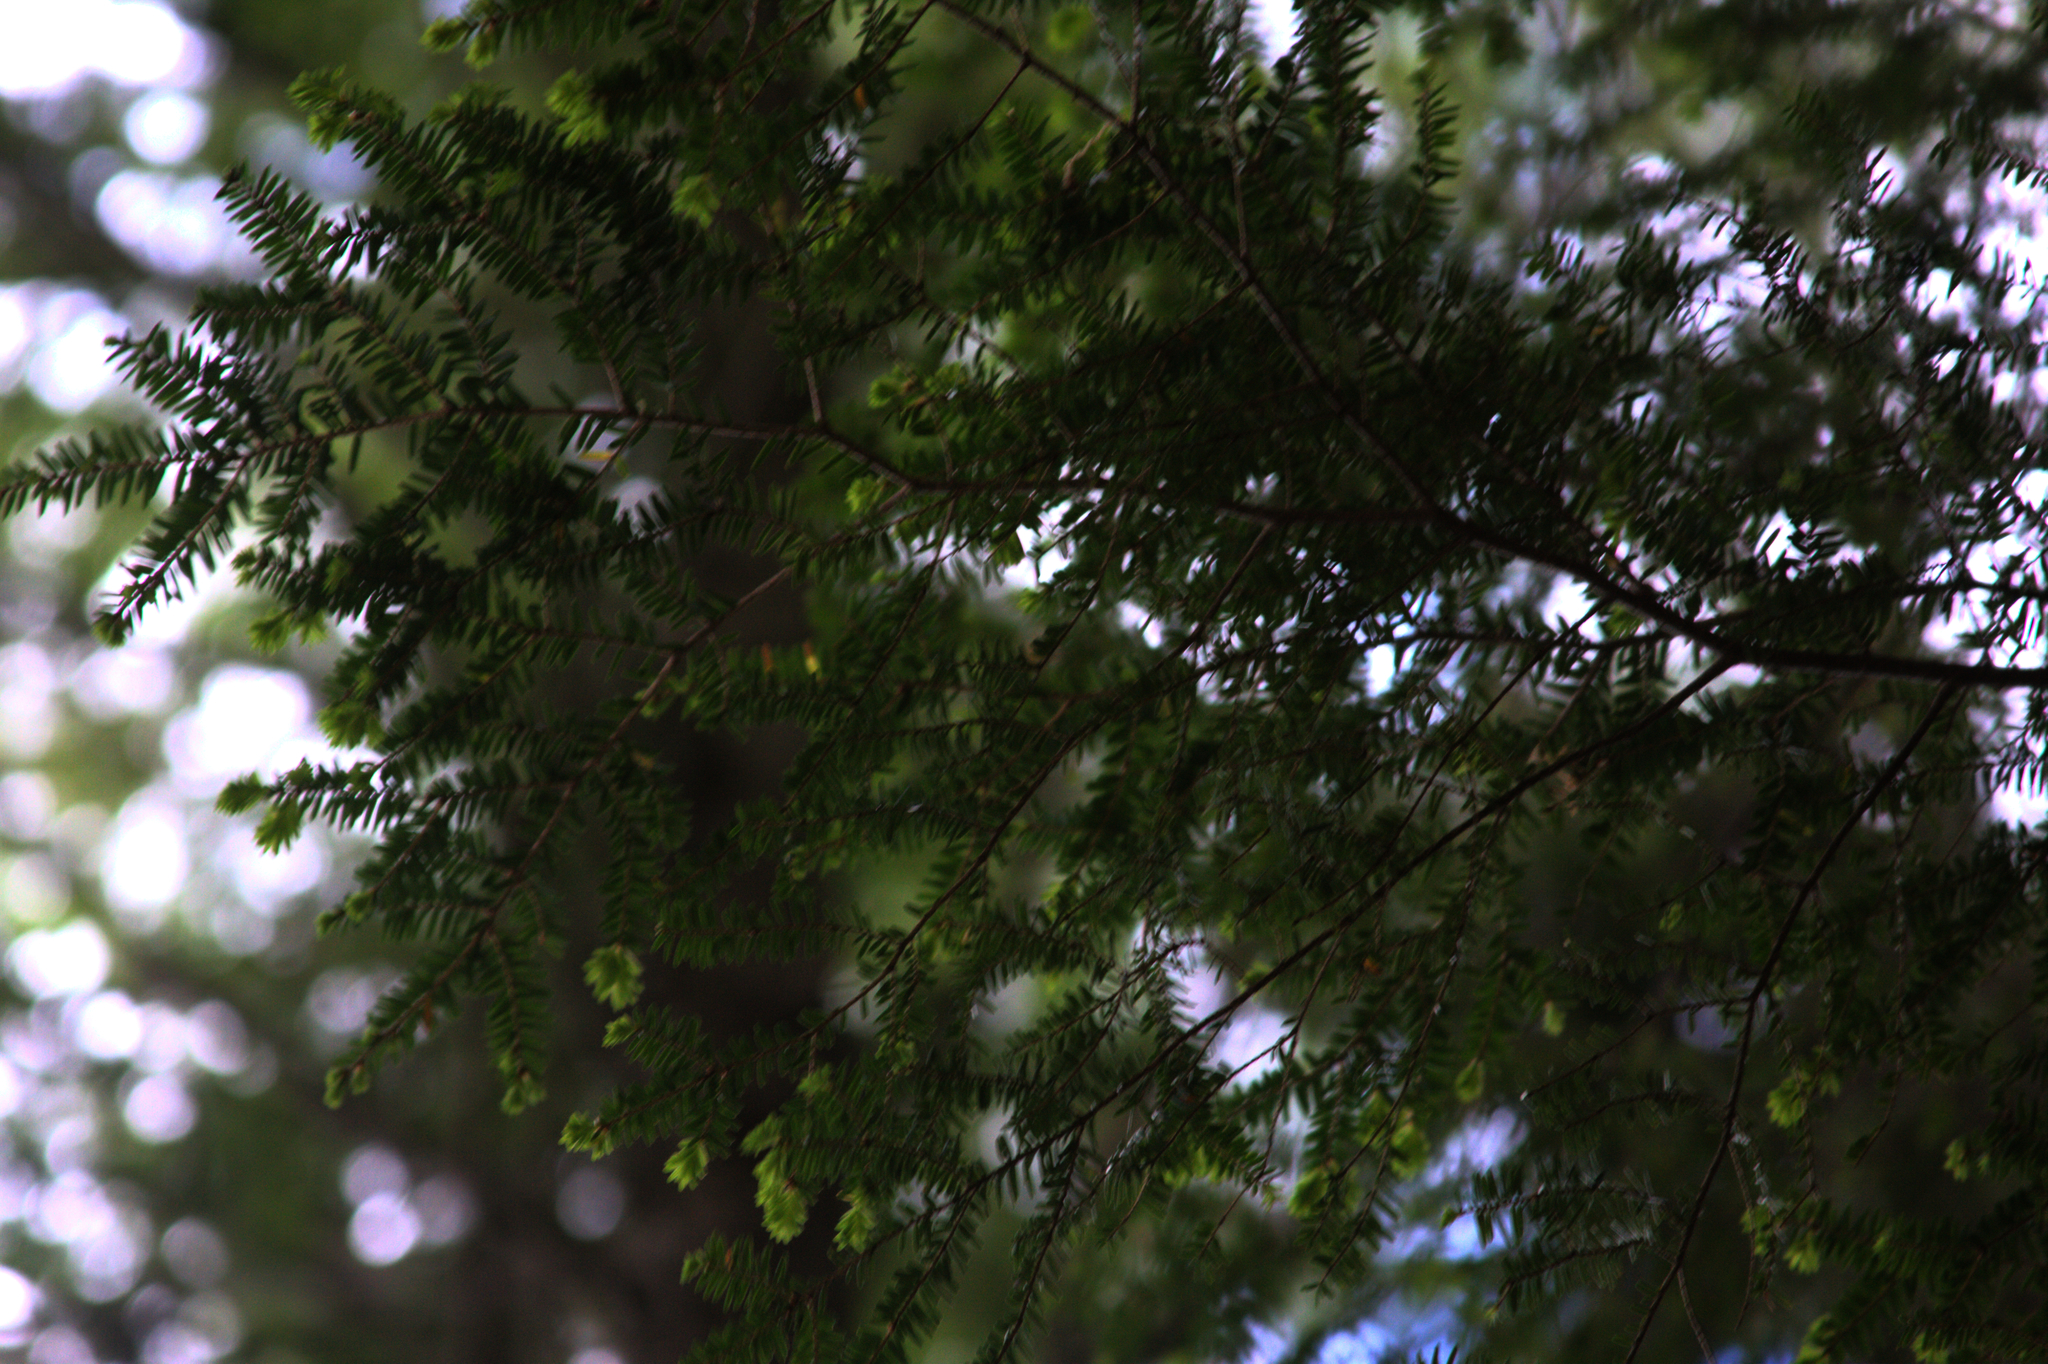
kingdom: Plantae
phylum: Tracheophyta
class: Pinopsida
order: Pinales
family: Pinaceae
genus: Tsuga
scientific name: Tsuga canadensis
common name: Eastern hemlock
